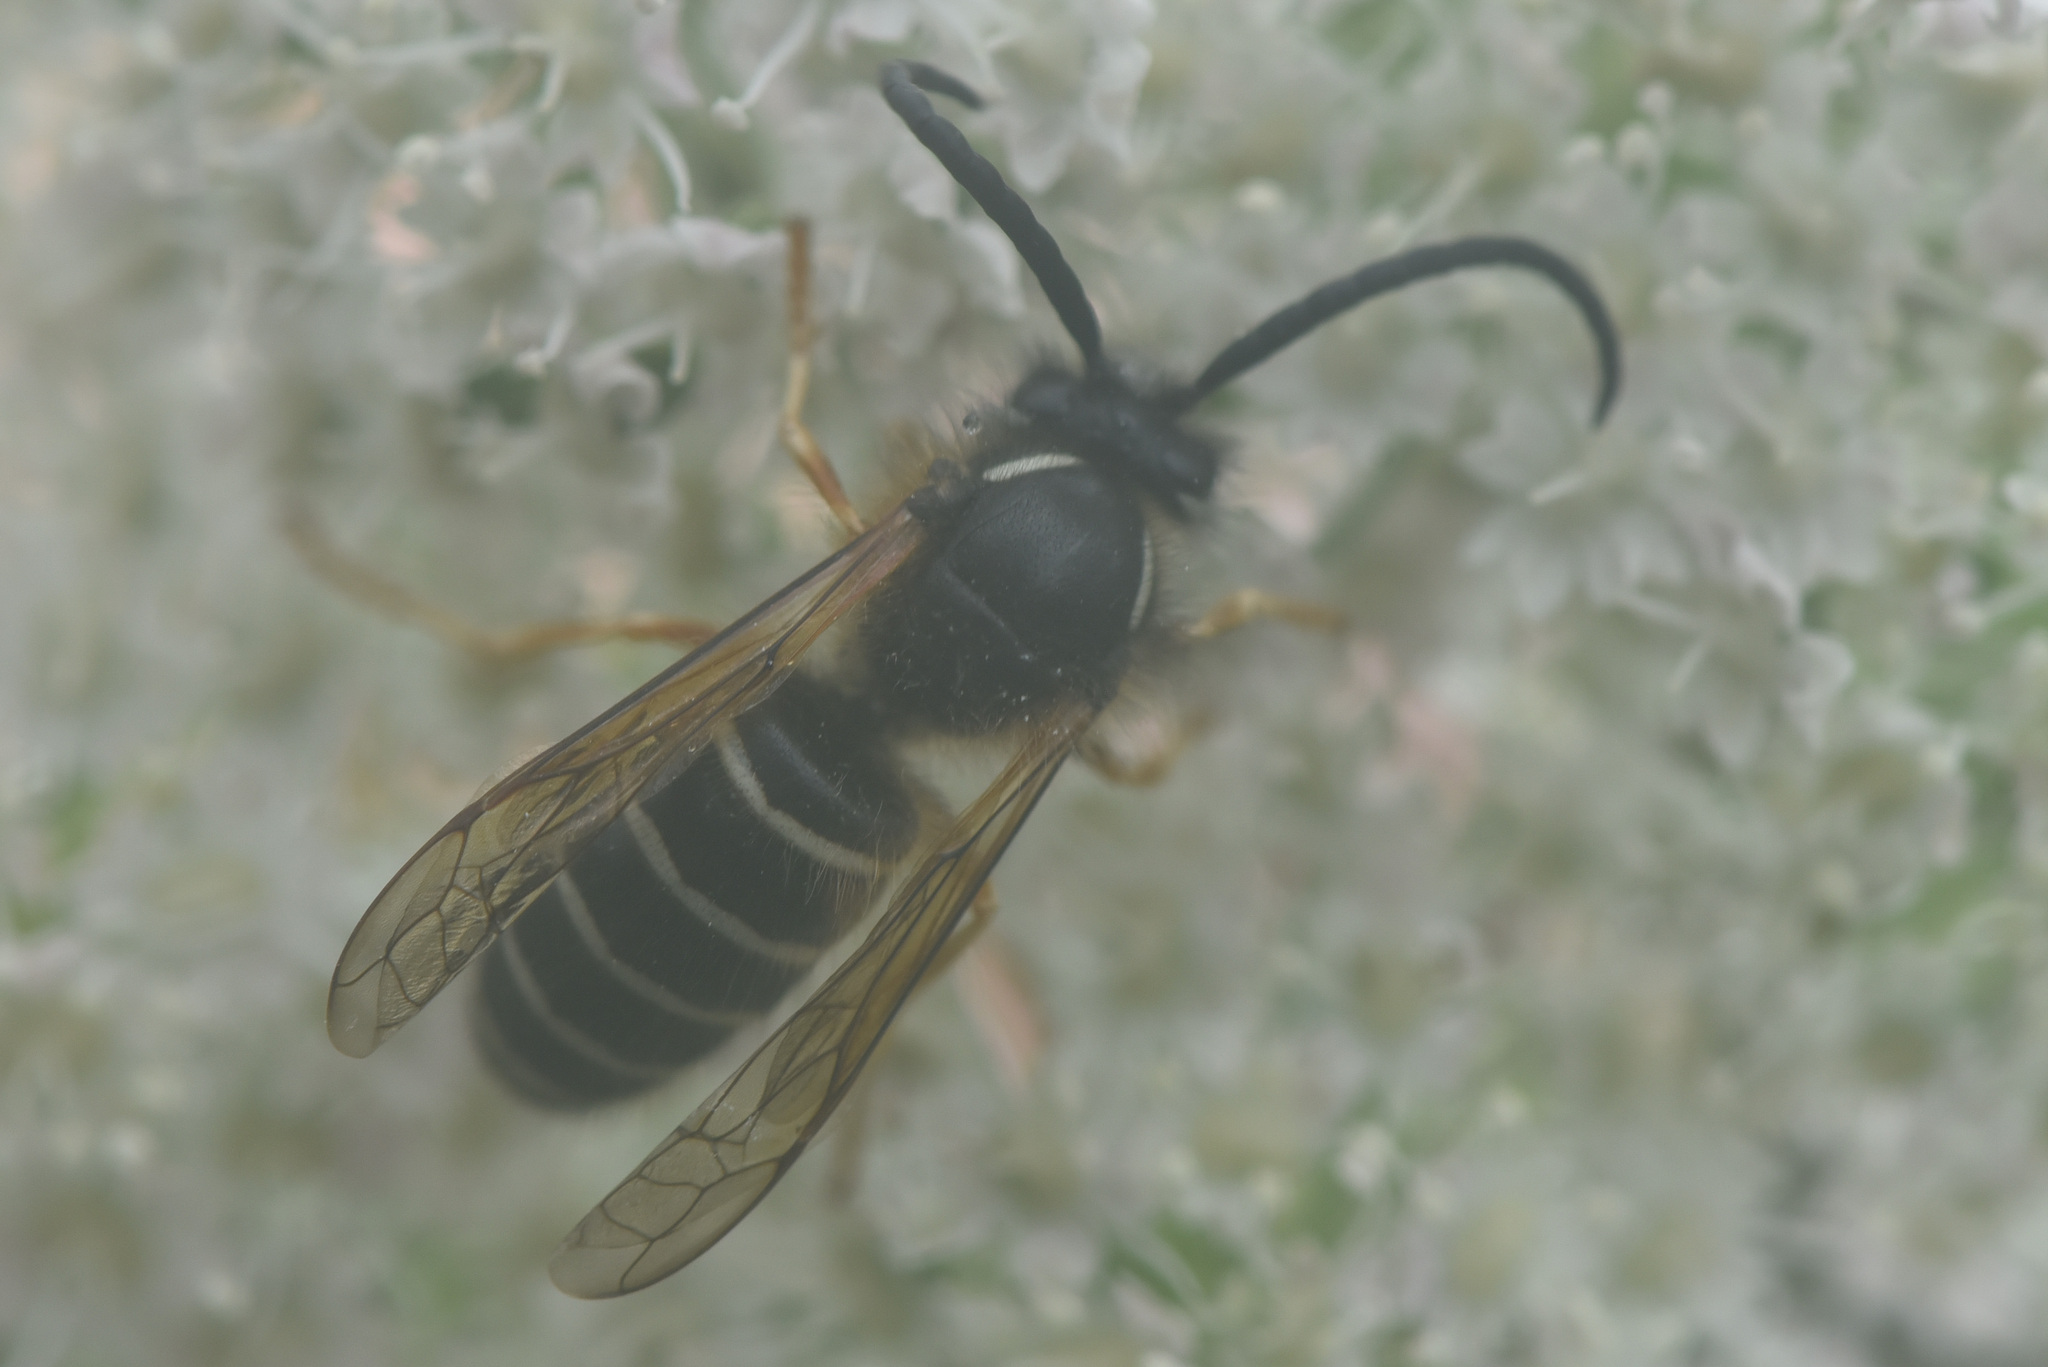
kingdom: Animalia
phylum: Arthropoda
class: Insecta
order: Hymenoptera
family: Vespidae
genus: Dolichovespula
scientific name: Dolichovespula norwegica
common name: Norwegian wasp
